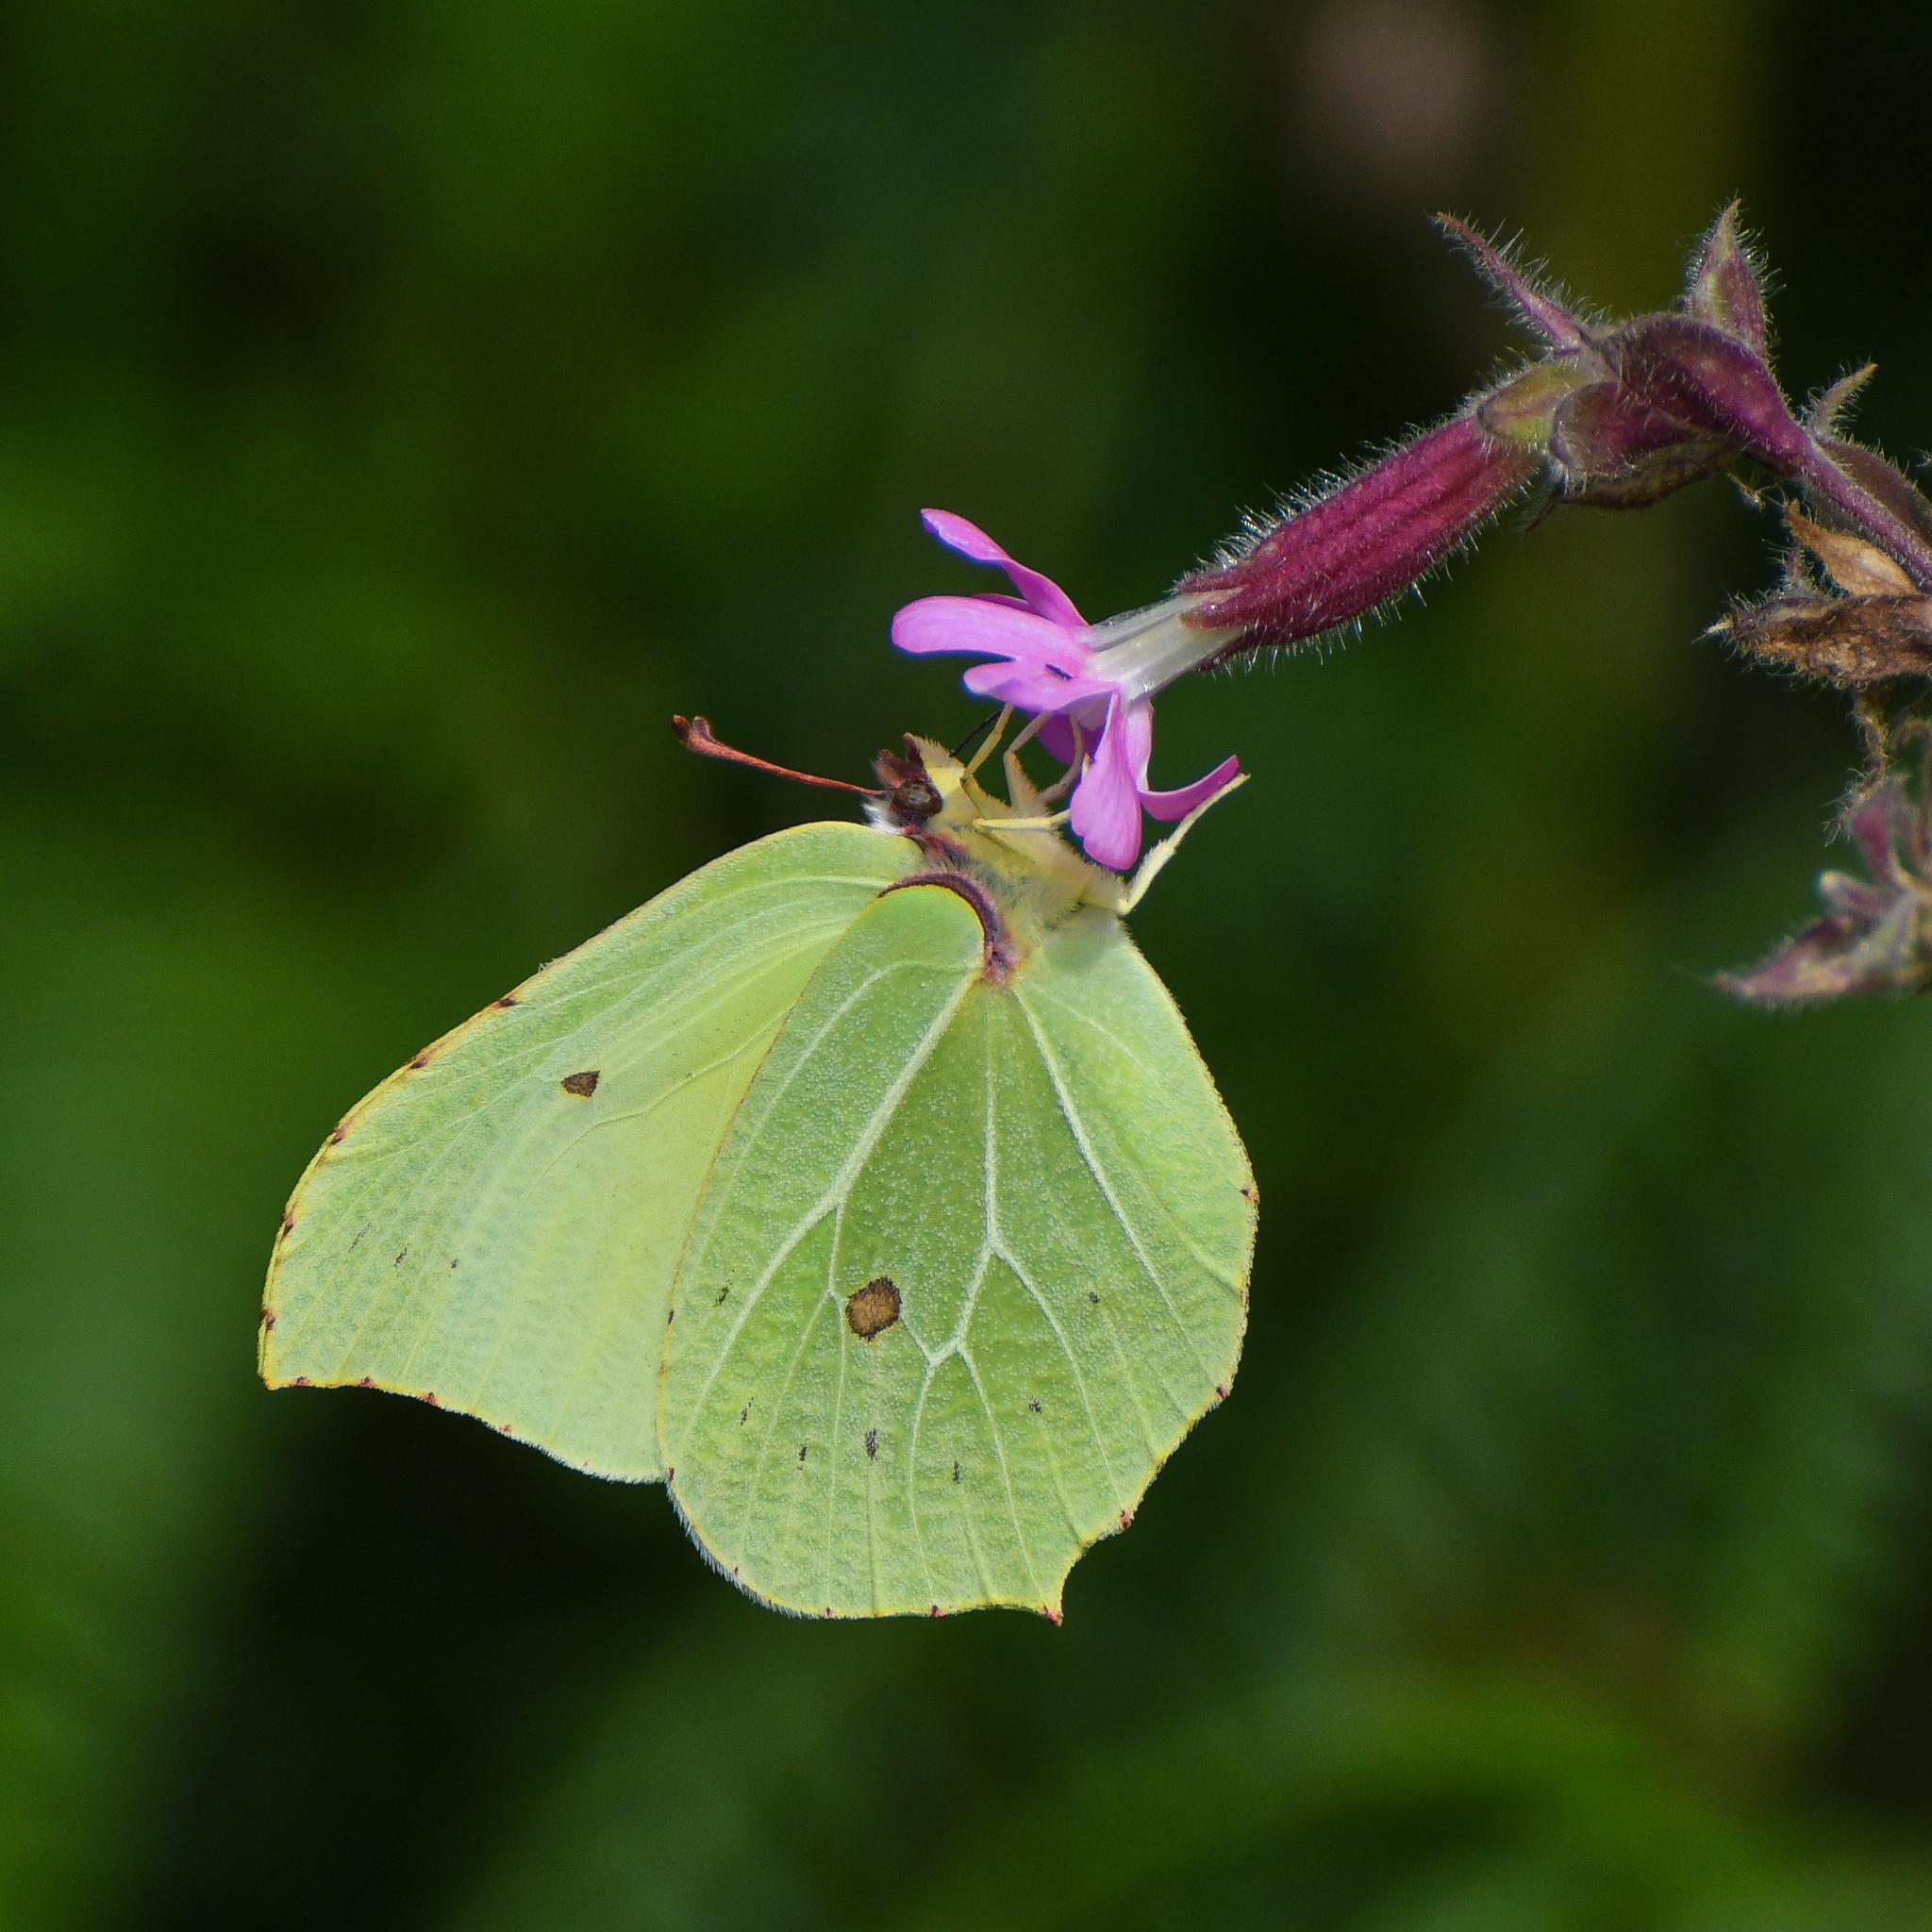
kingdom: Animalia
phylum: Arthropoda
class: Insecta
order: Lepidoptera
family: Pieridae
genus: Gonepteryx
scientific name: Gonepteryx rhamni
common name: Brimstone
